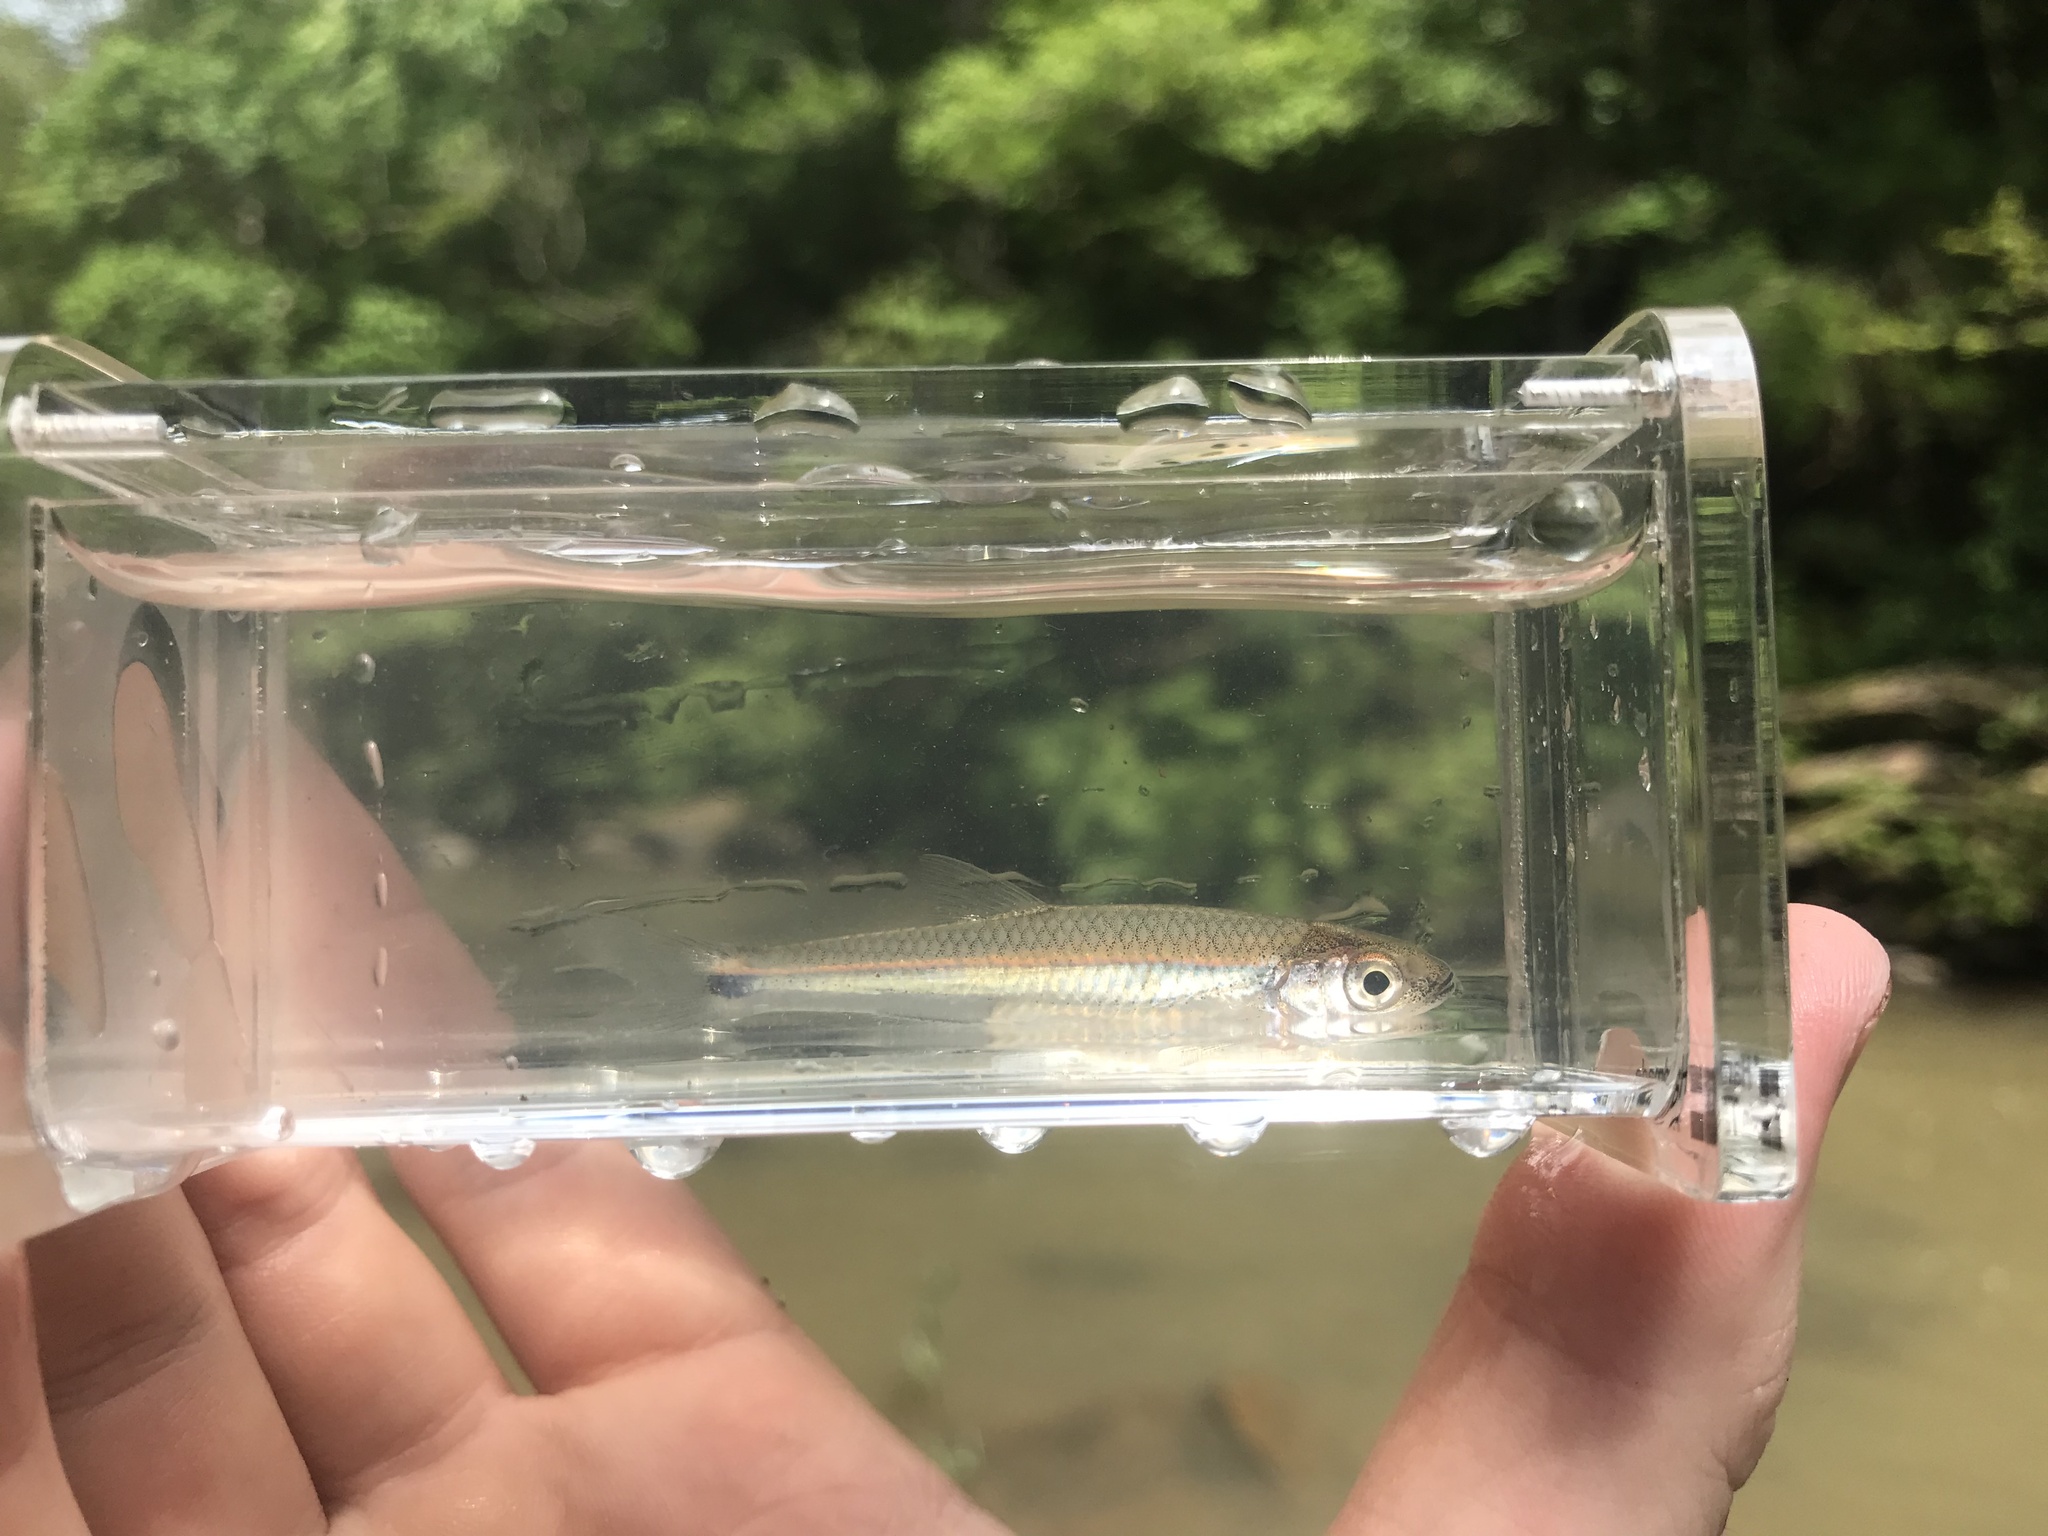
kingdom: Animalia
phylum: Chordata
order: Cypriniformes
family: Cyprinidae
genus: Notropis
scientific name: Notropis stilbius
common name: Silverstripe shiner
